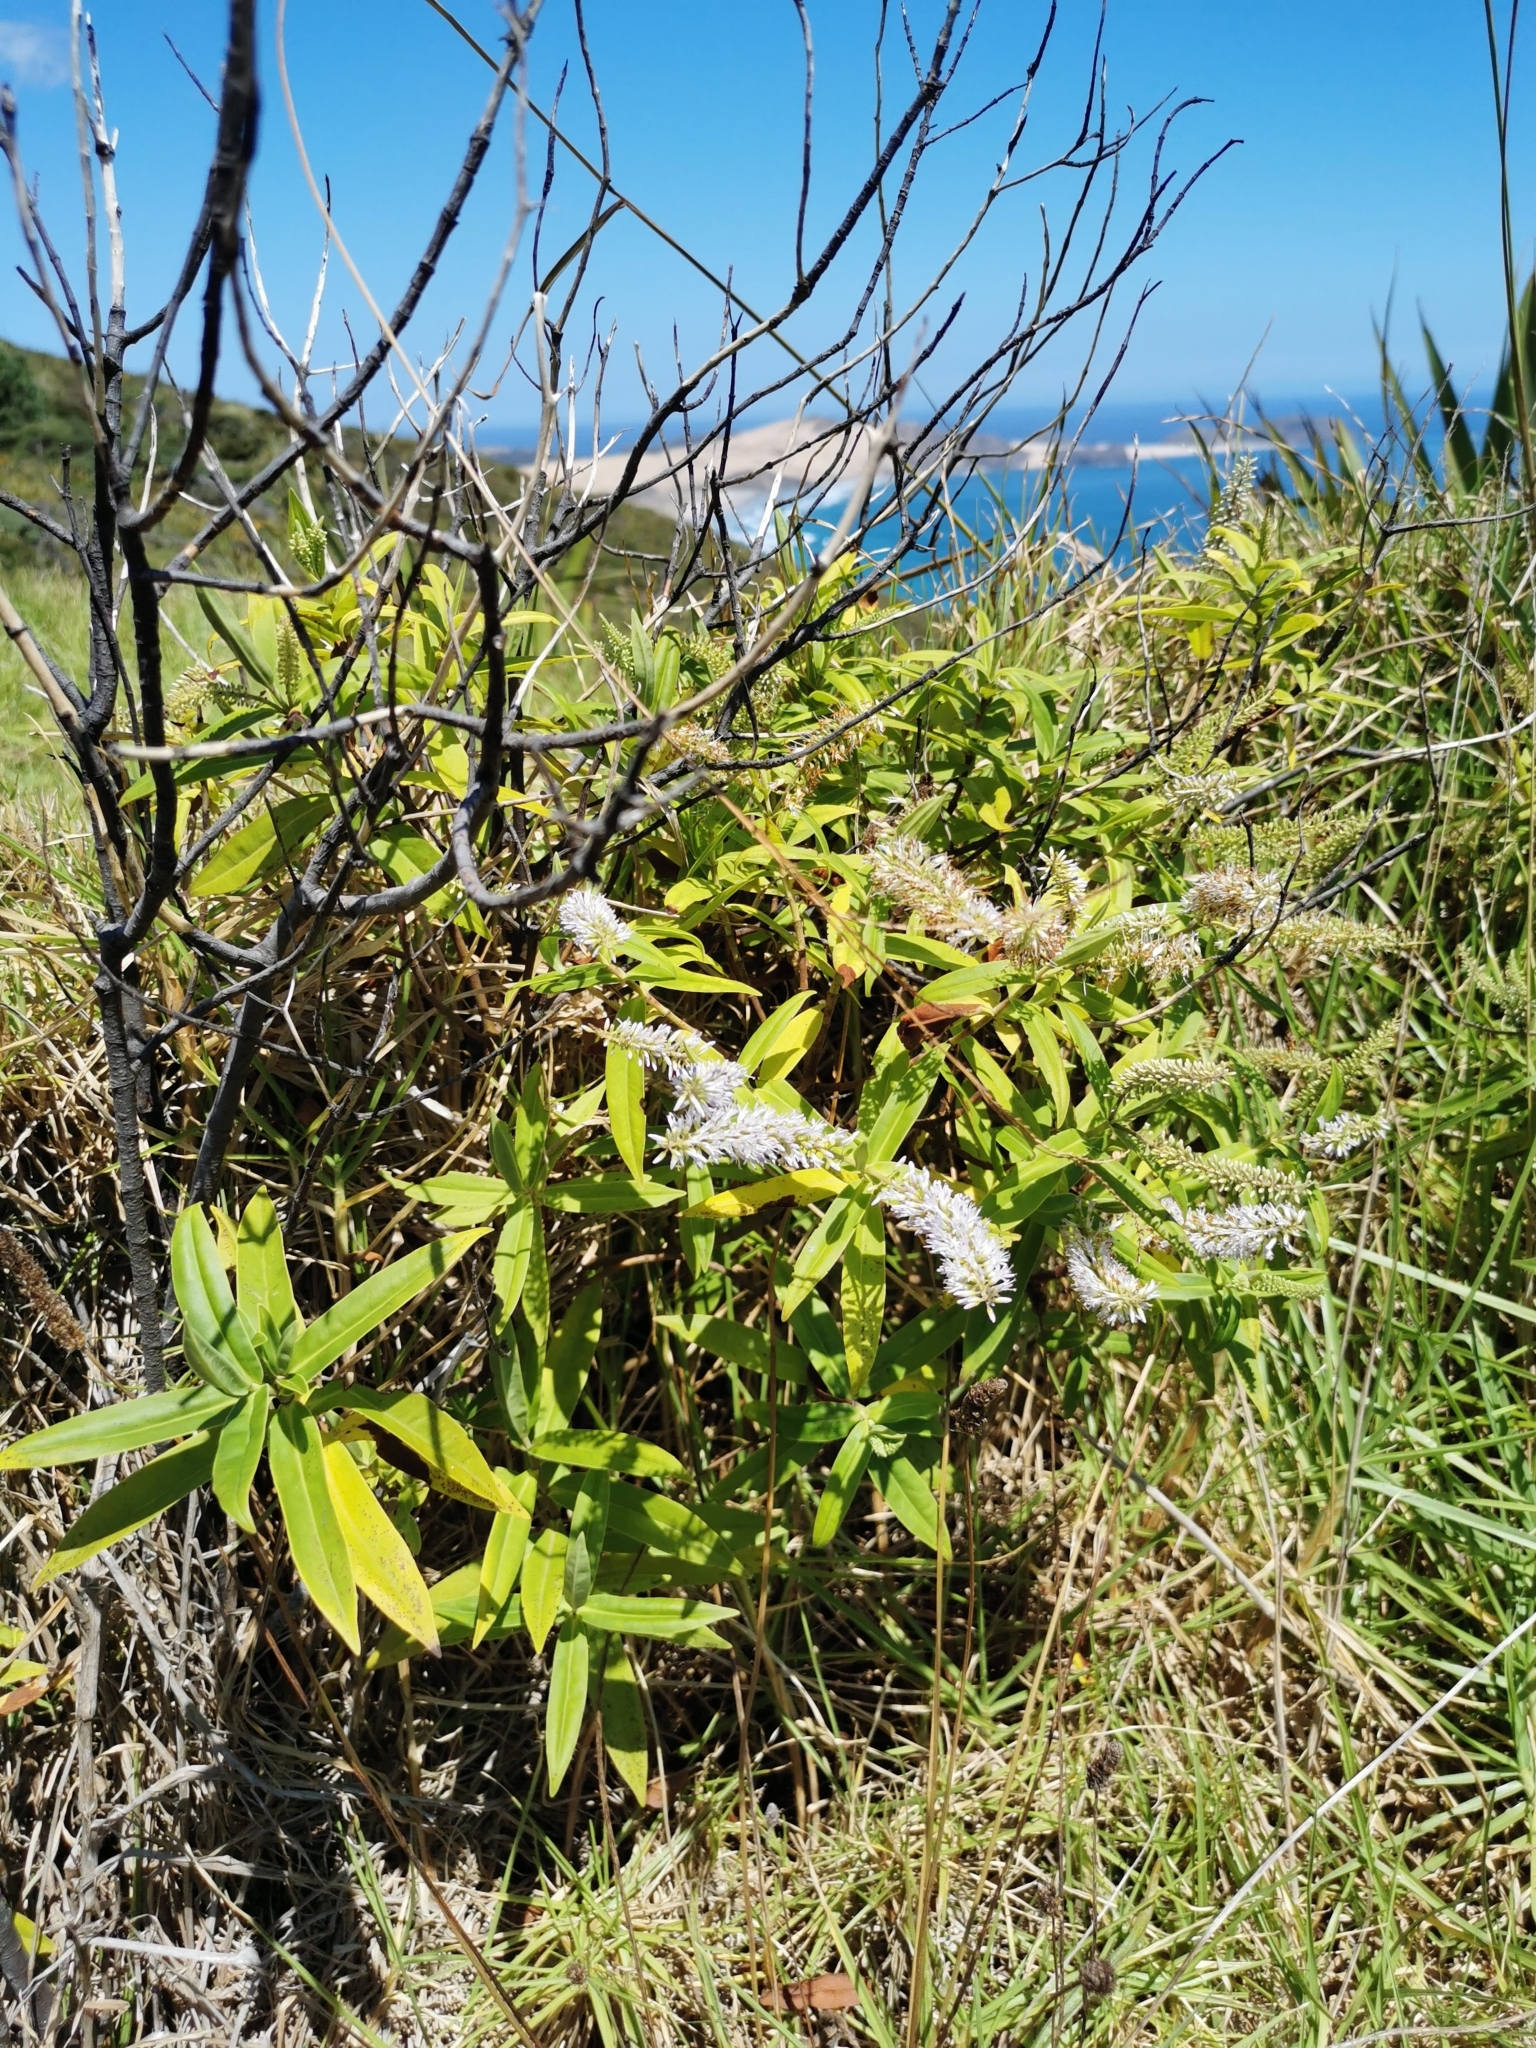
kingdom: Plantae
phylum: Tracheophyta
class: Magnoliopsida
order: Lamiales
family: Plantaginaceae
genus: Veronica
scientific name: Veronica stricta
